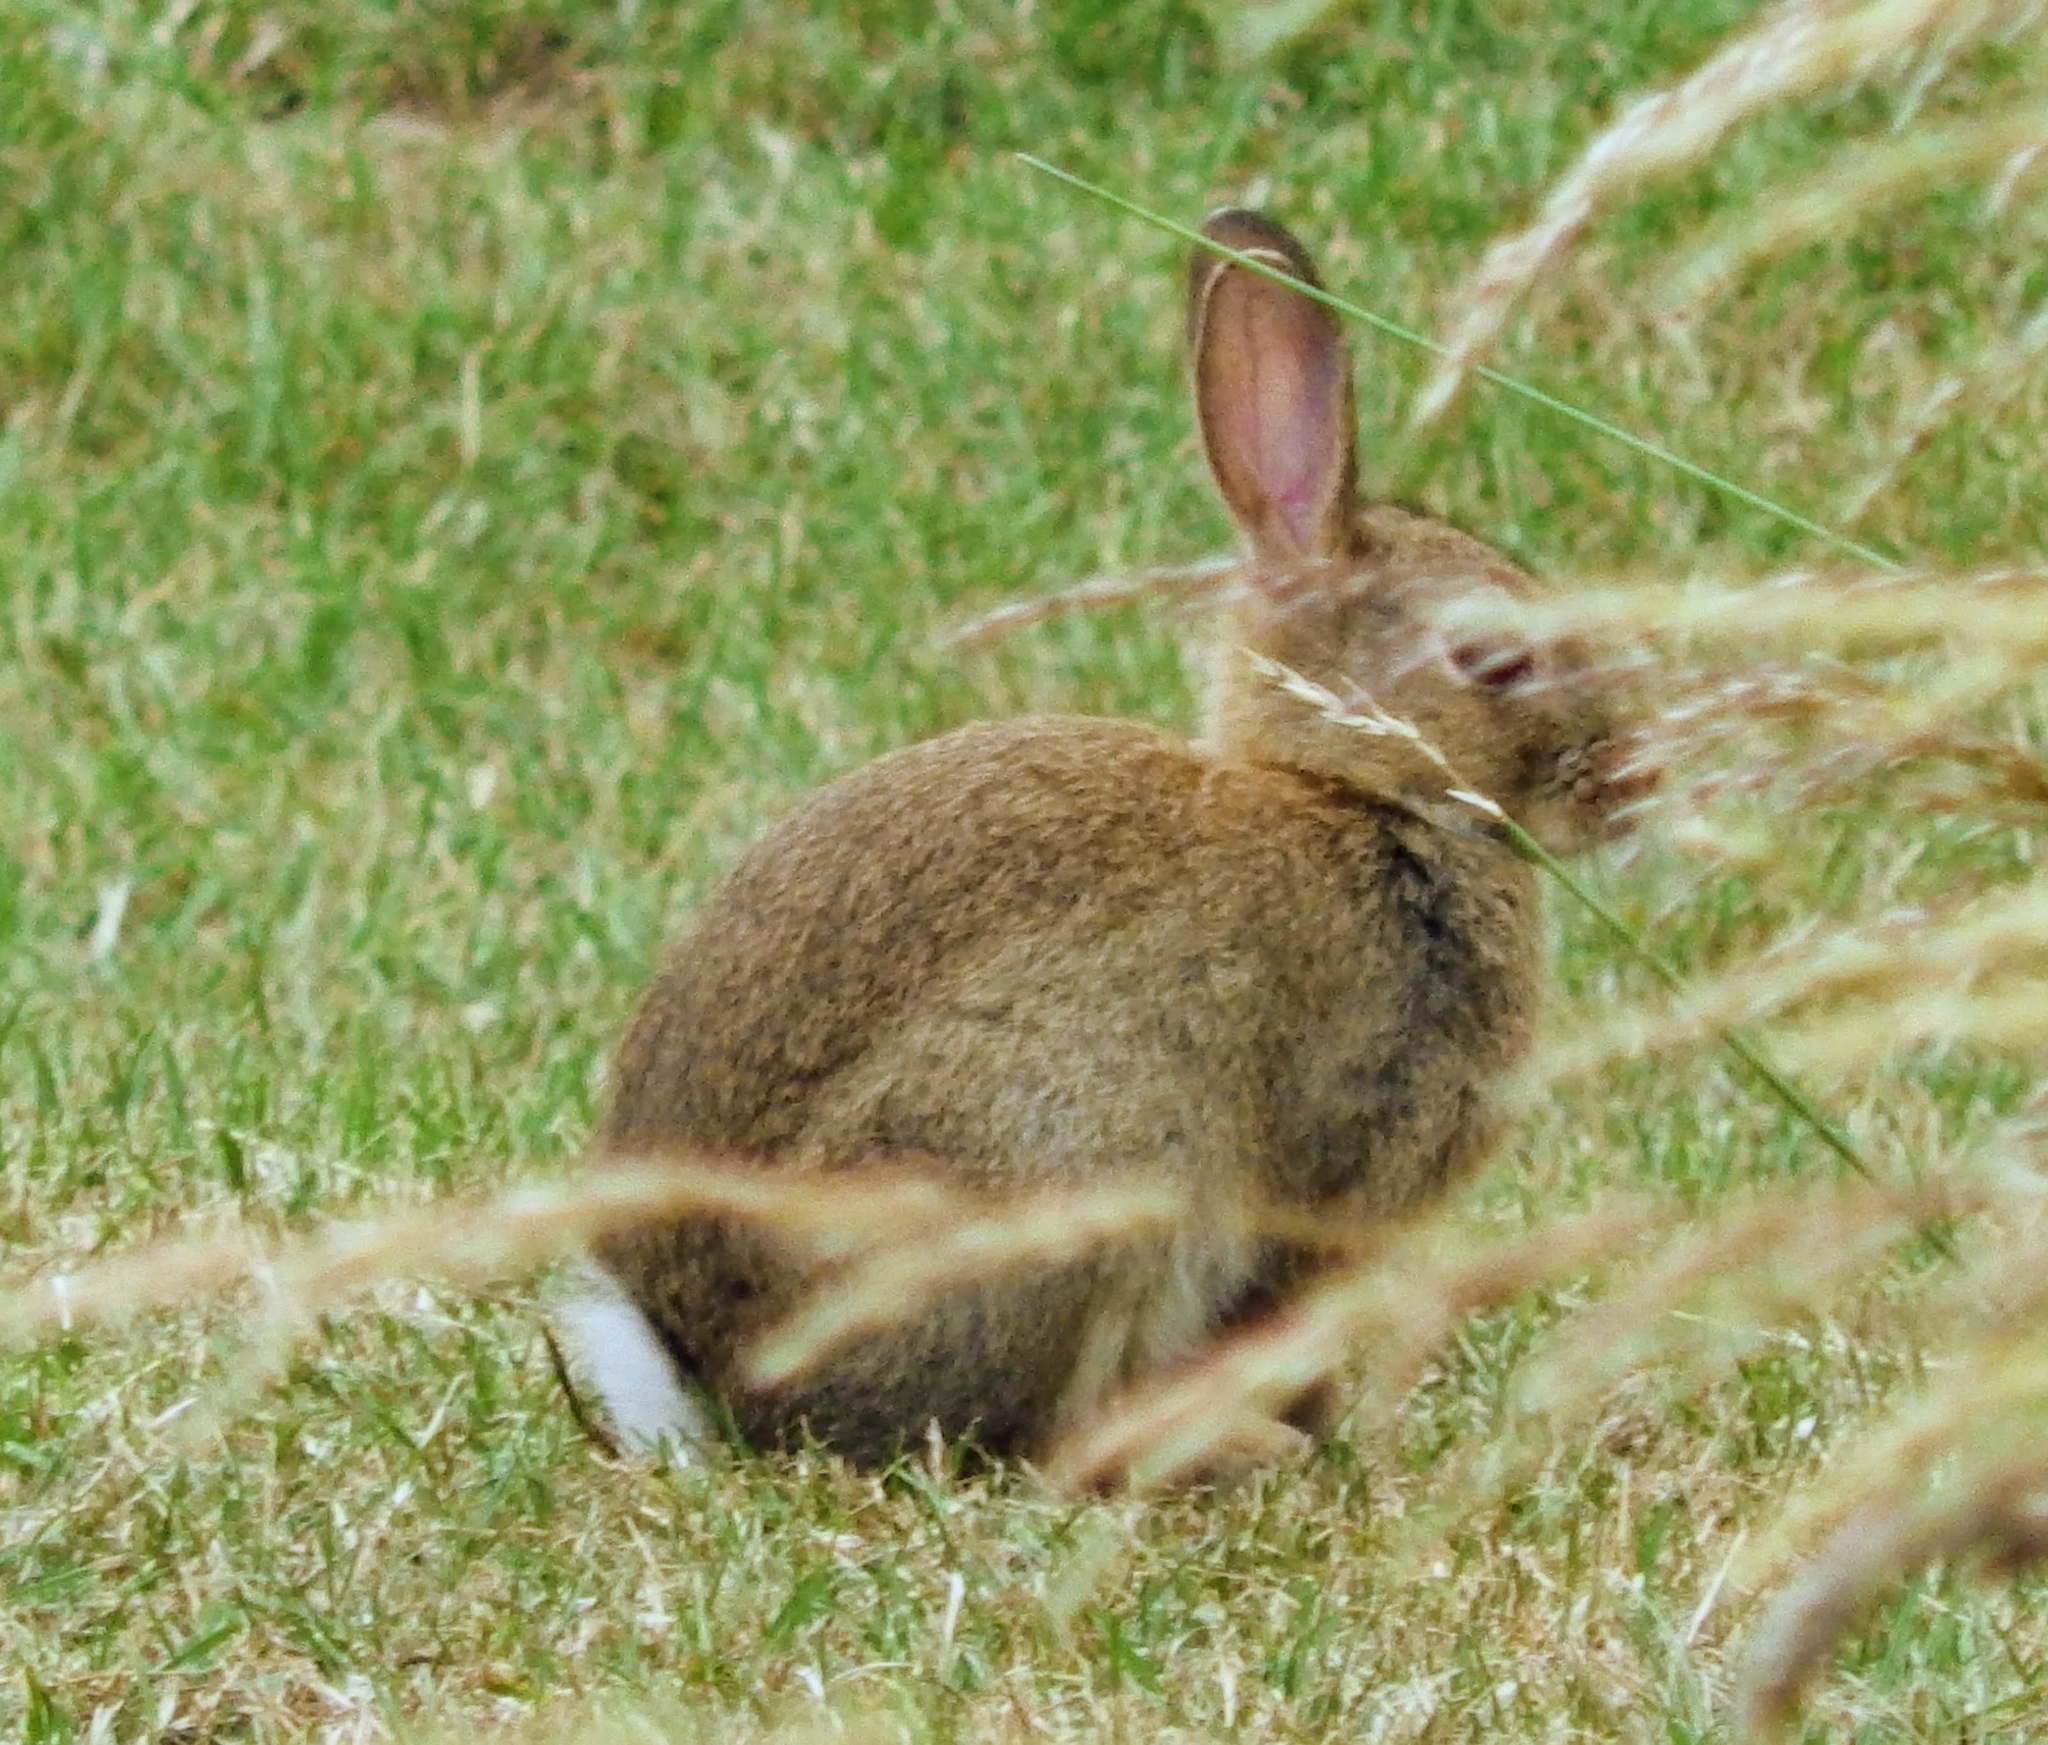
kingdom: Animalia
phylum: Chordata
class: Mammalia
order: Lagomorpha
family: Leporidae
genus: Oryctolagus
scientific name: Oryctolagus cuniculus
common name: European rabbit
